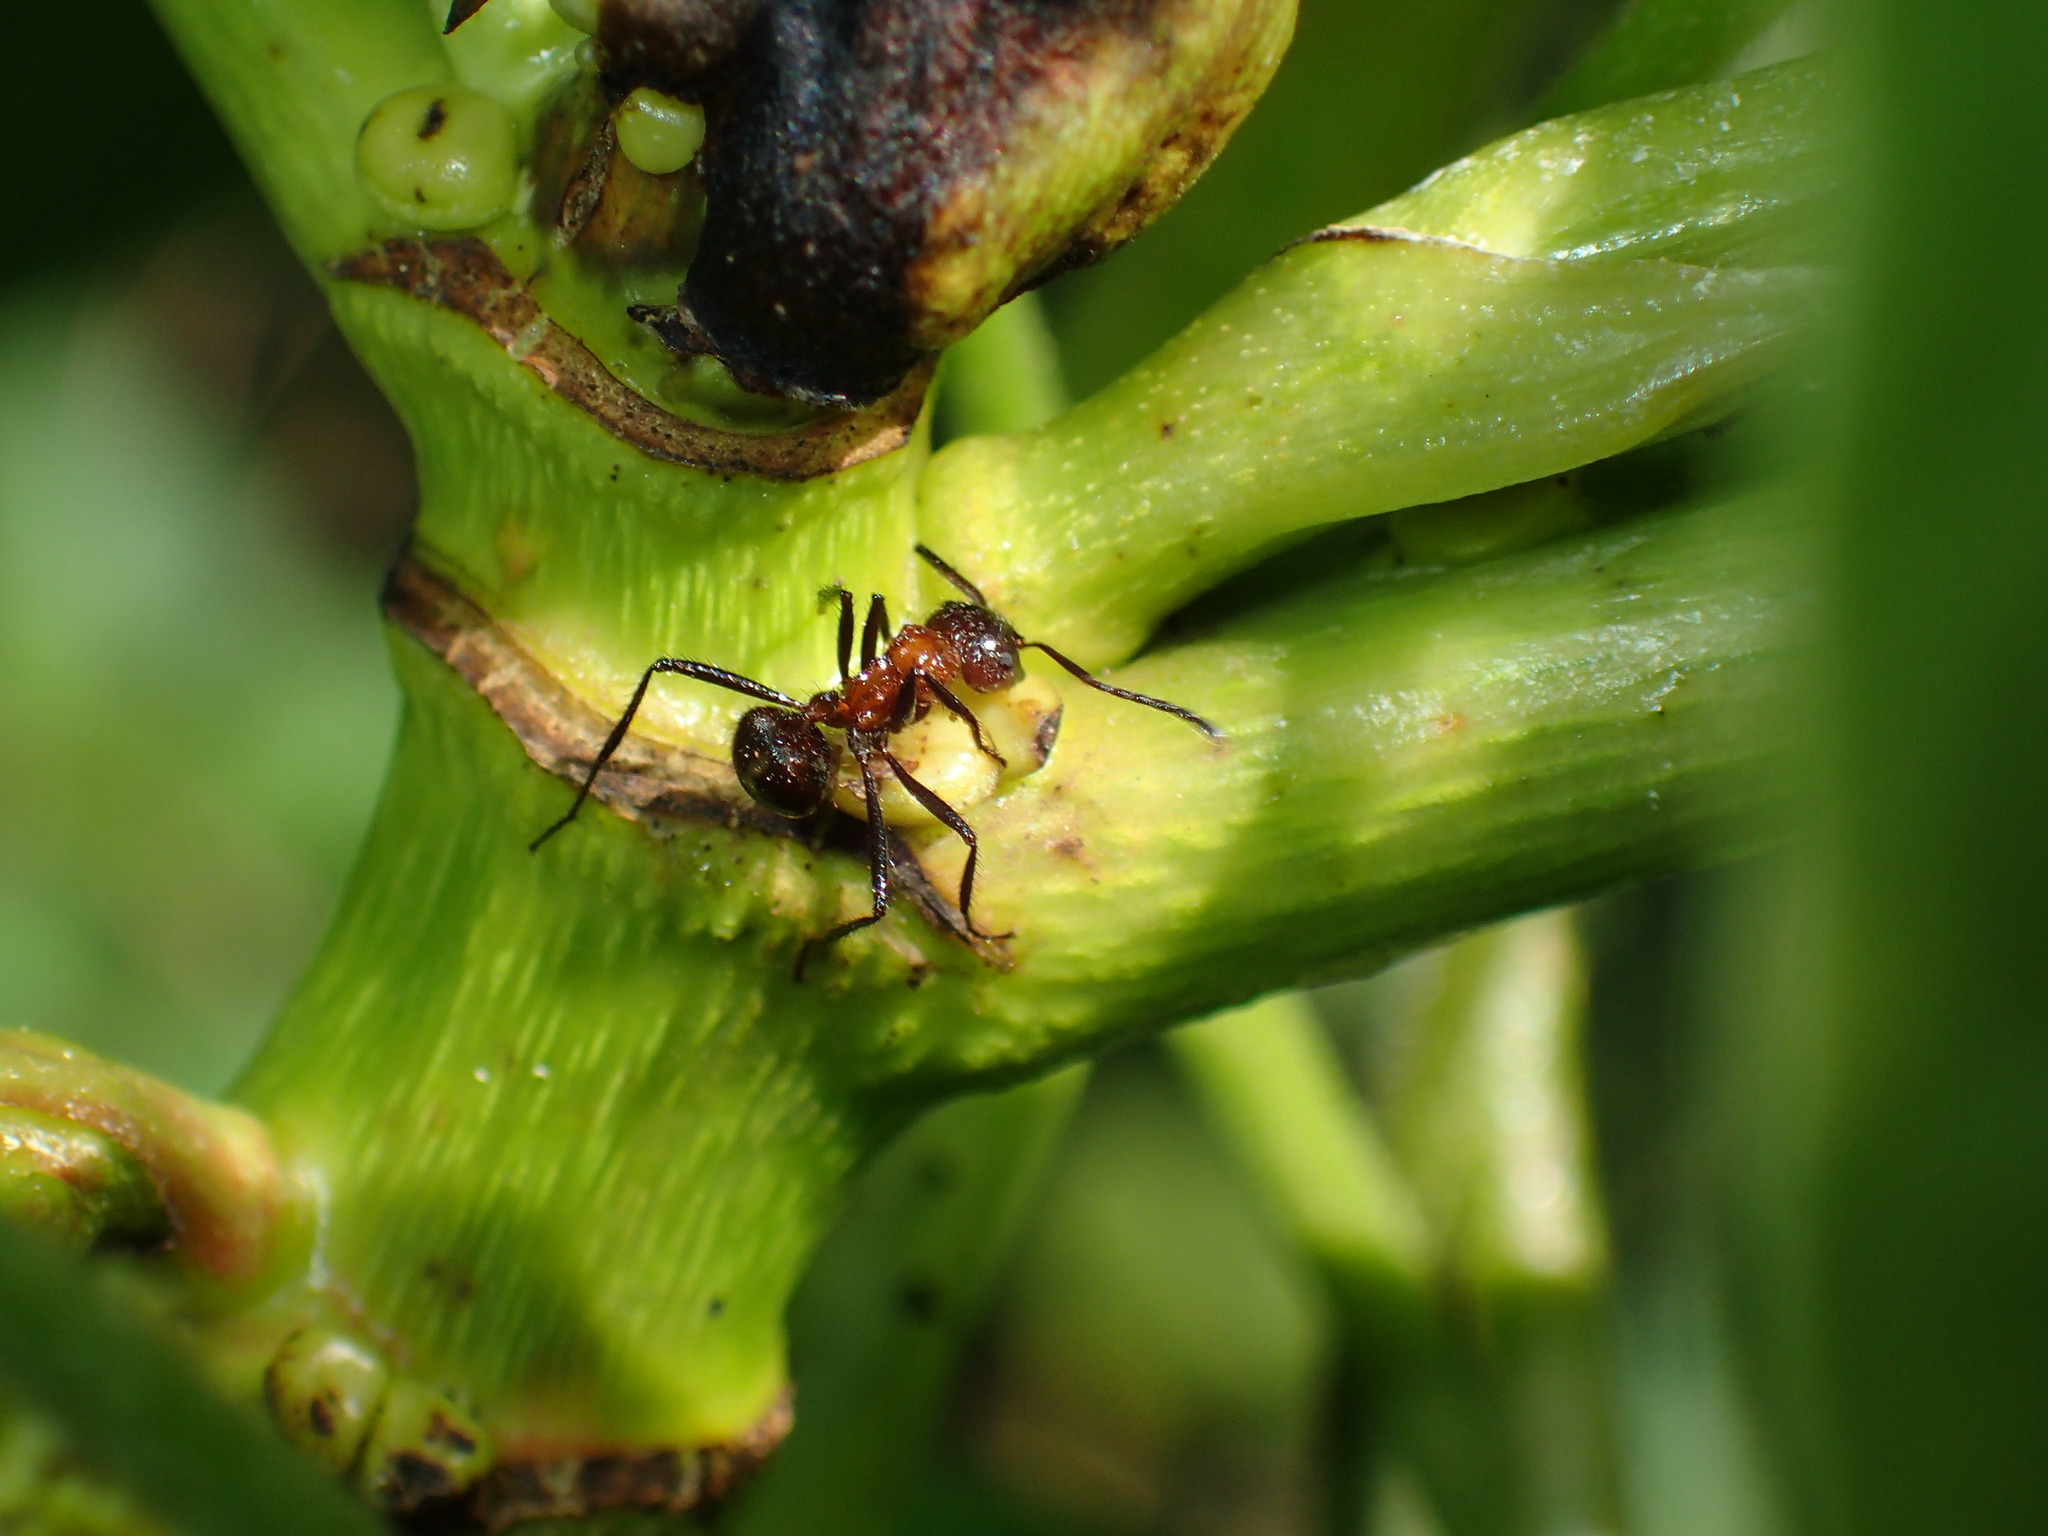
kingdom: Animalia
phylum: Arthropoda
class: Insecta
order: Hymenoptera
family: Formicidae
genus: Myrmicaria
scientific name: Myrmicaria natalensis
